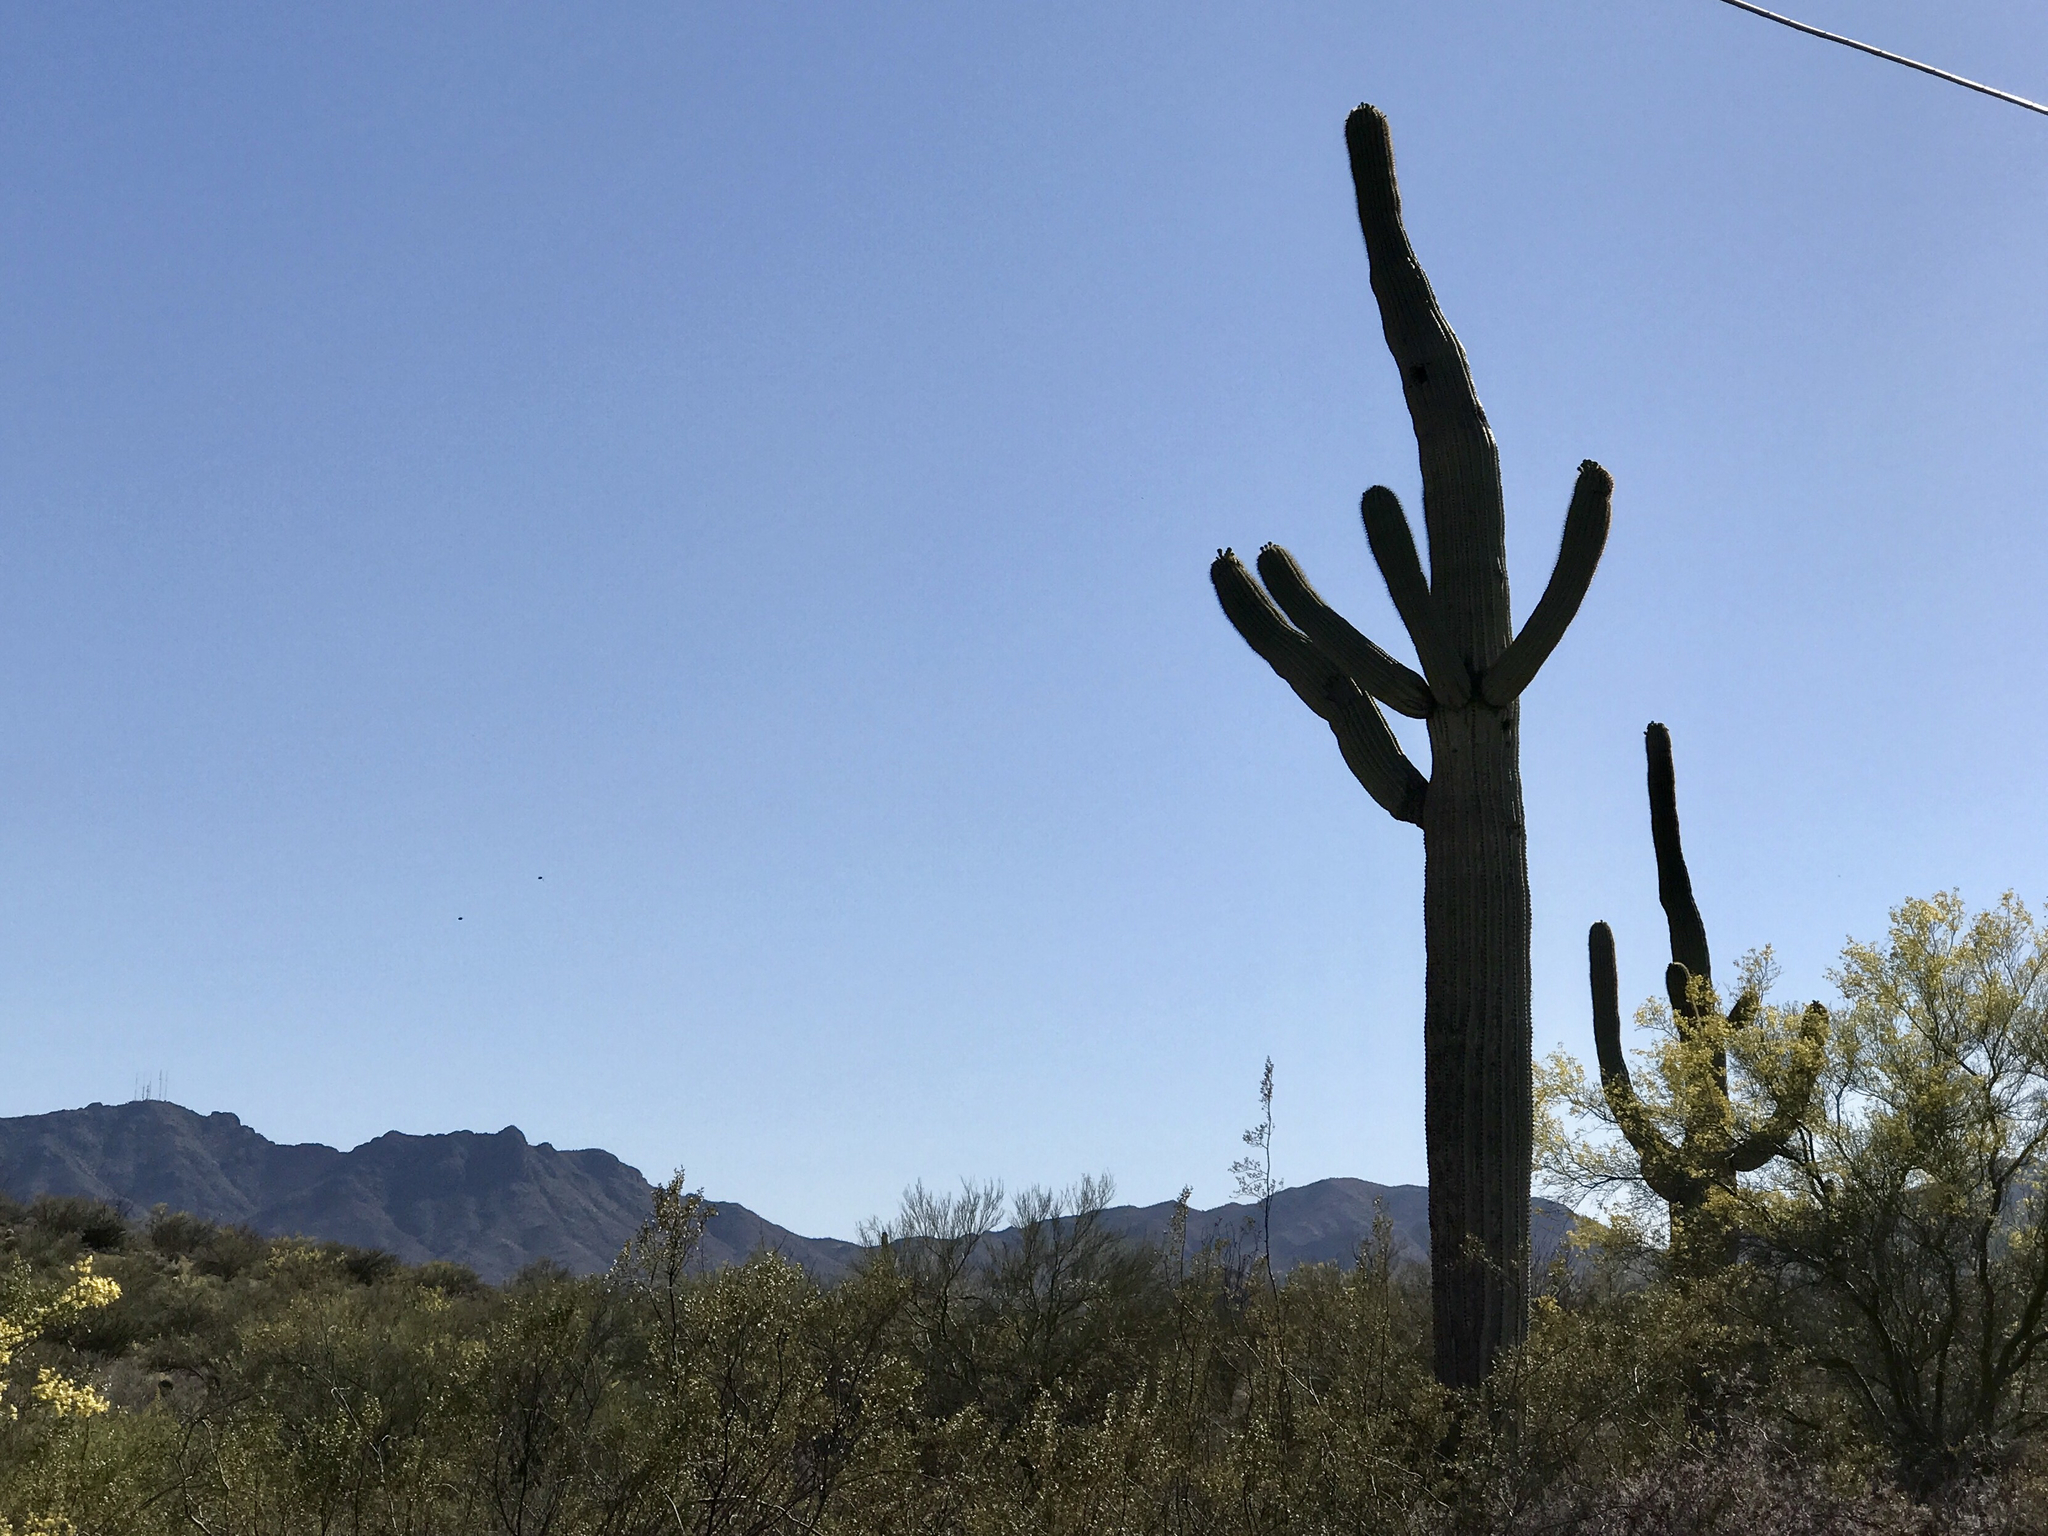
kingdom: Plantae
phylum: Tracheophyta
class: Magnoliopsida
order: Caryophyllales
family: Cactaceae
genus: Carnegiea
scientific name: Carnegiea gigantea
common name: Saguaro
